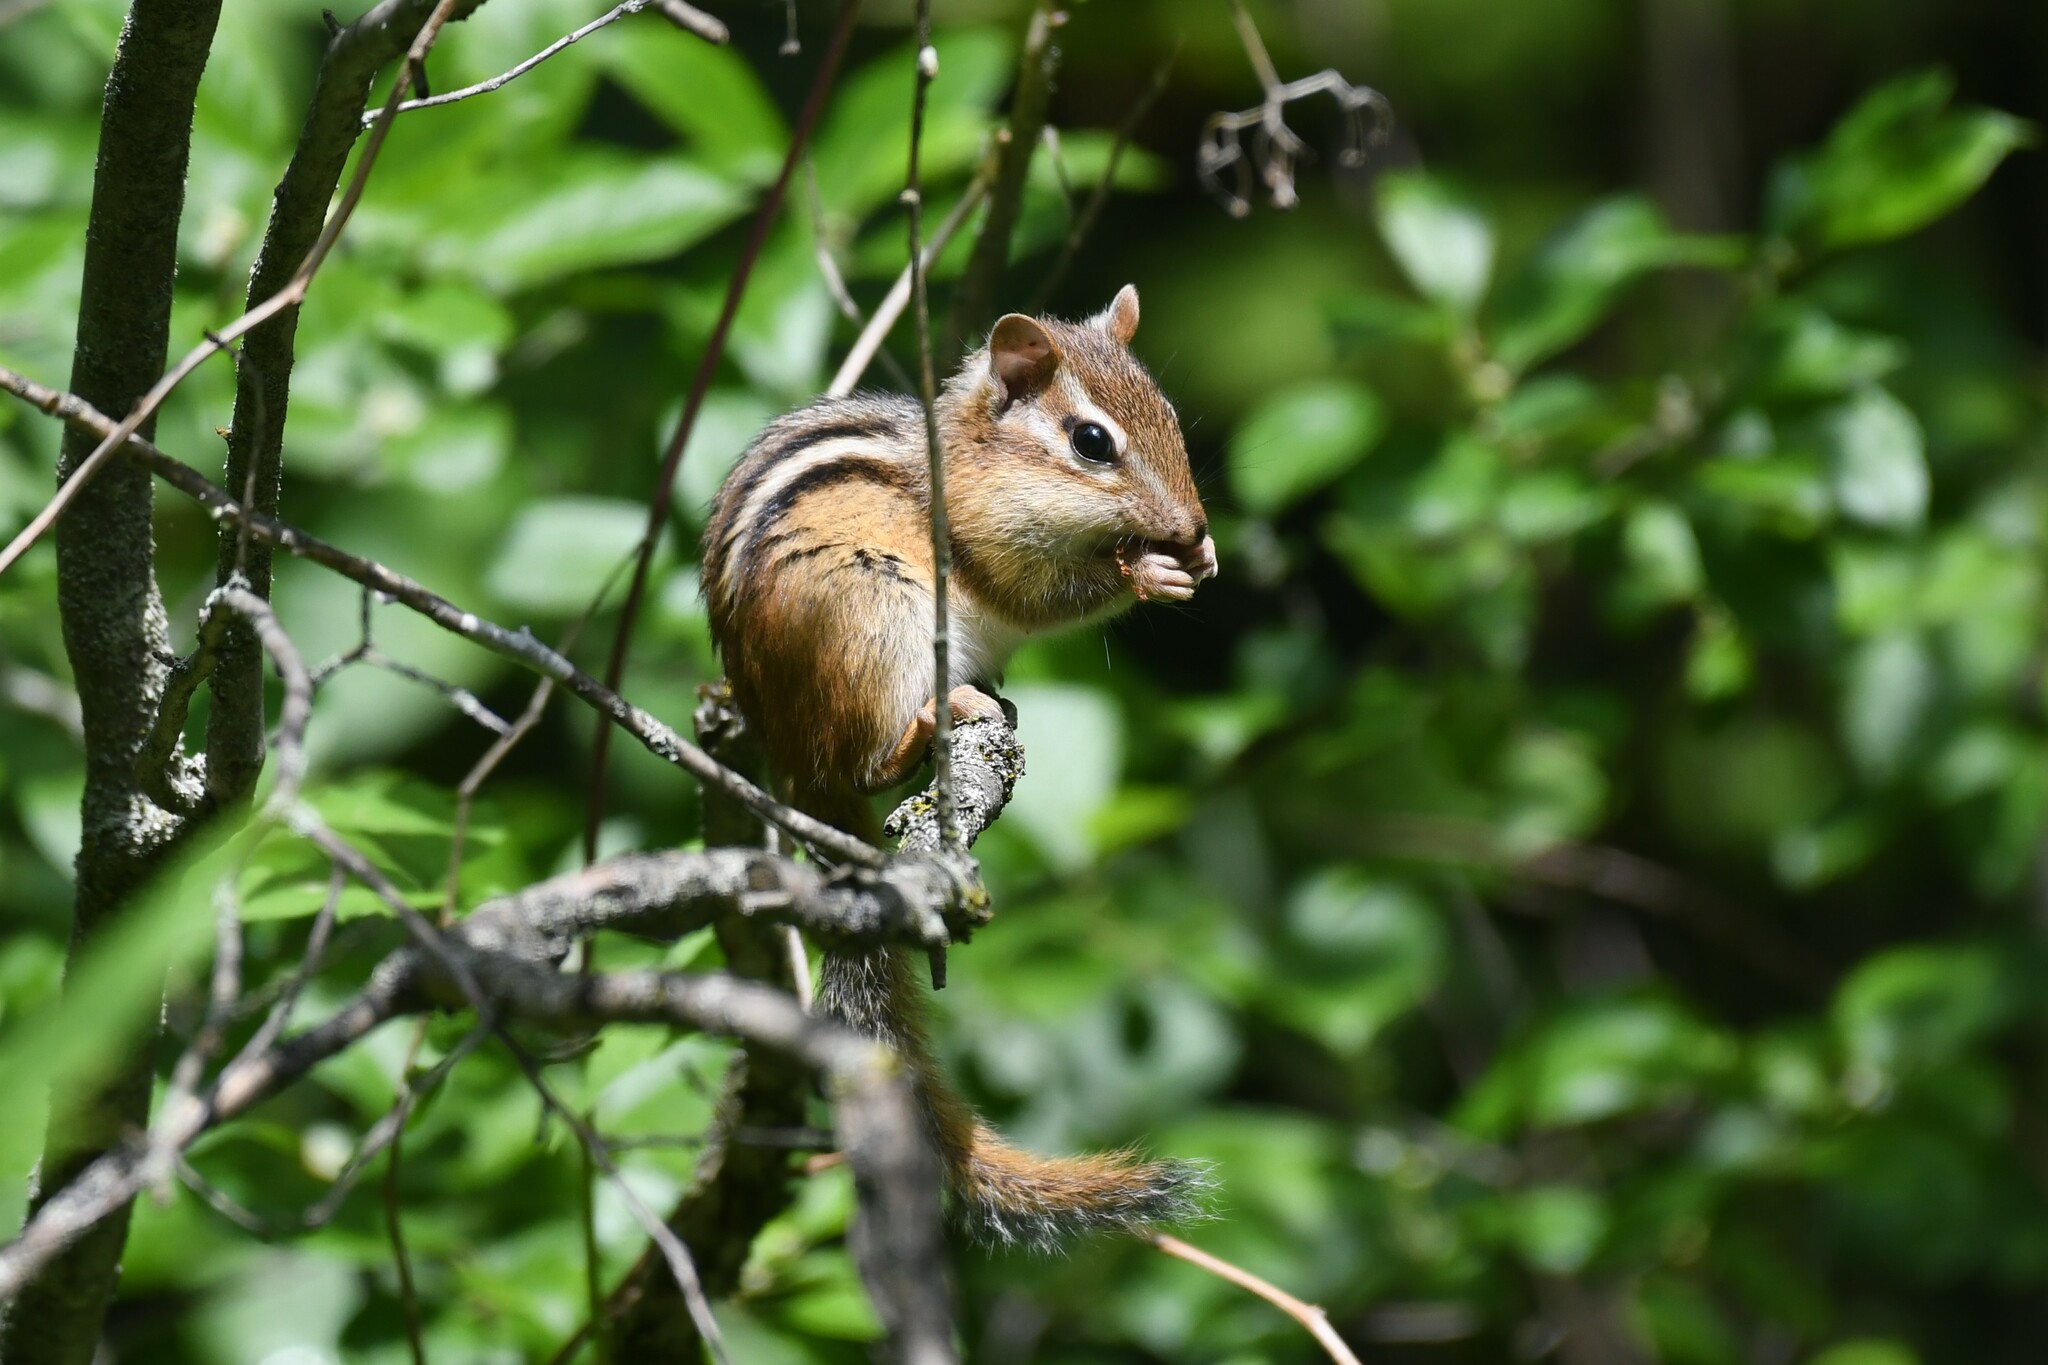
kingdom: Animalia
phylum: Chordata
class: Mammalia
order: Rodentia
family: Sciuridae
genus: Tamias
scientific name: Tamias striatus
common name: Eastern chipmunk
